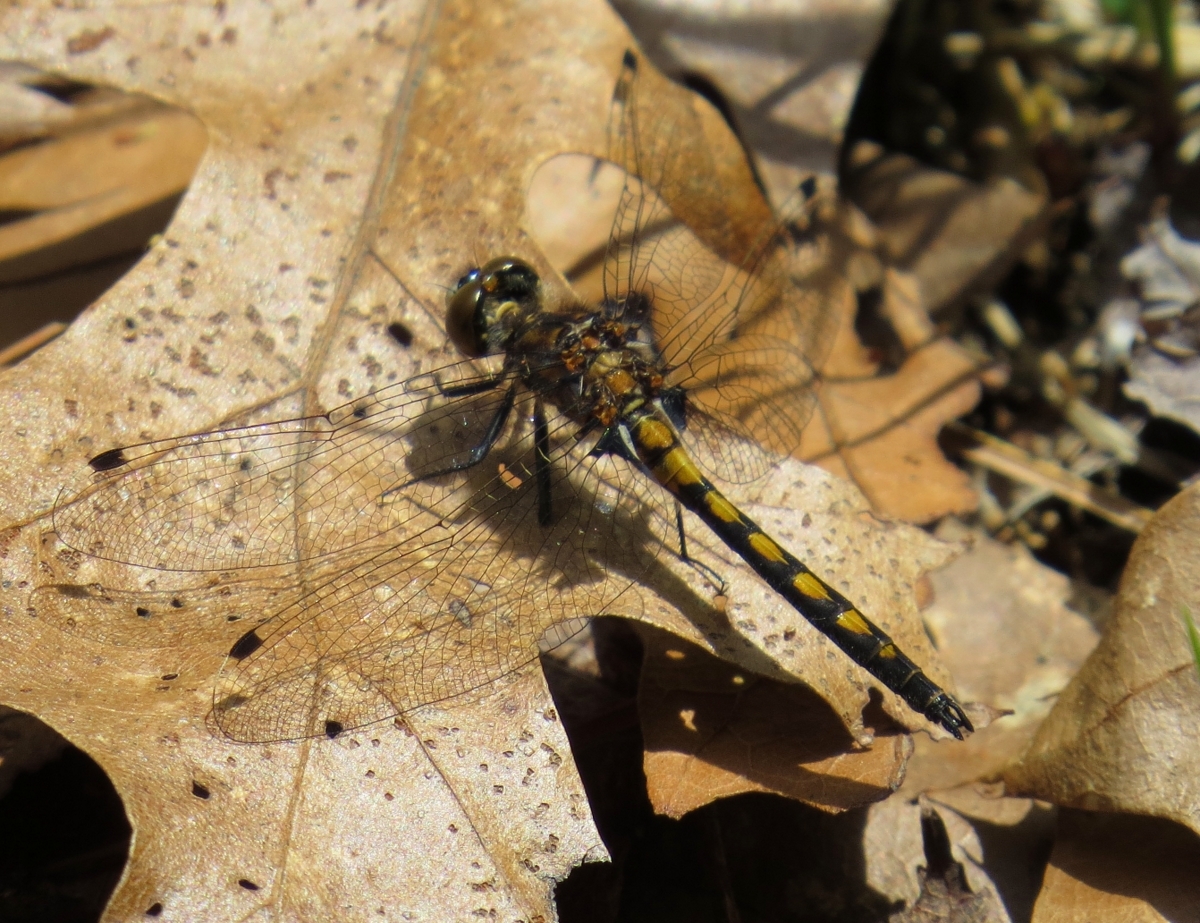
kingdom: Animalia
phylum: Arthropoda
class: Insecta
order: Odonata
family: Libellulidae
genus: Leucorrhinia
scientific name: Leucorrhinia hudsonica
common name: Hudsonian whiteface
